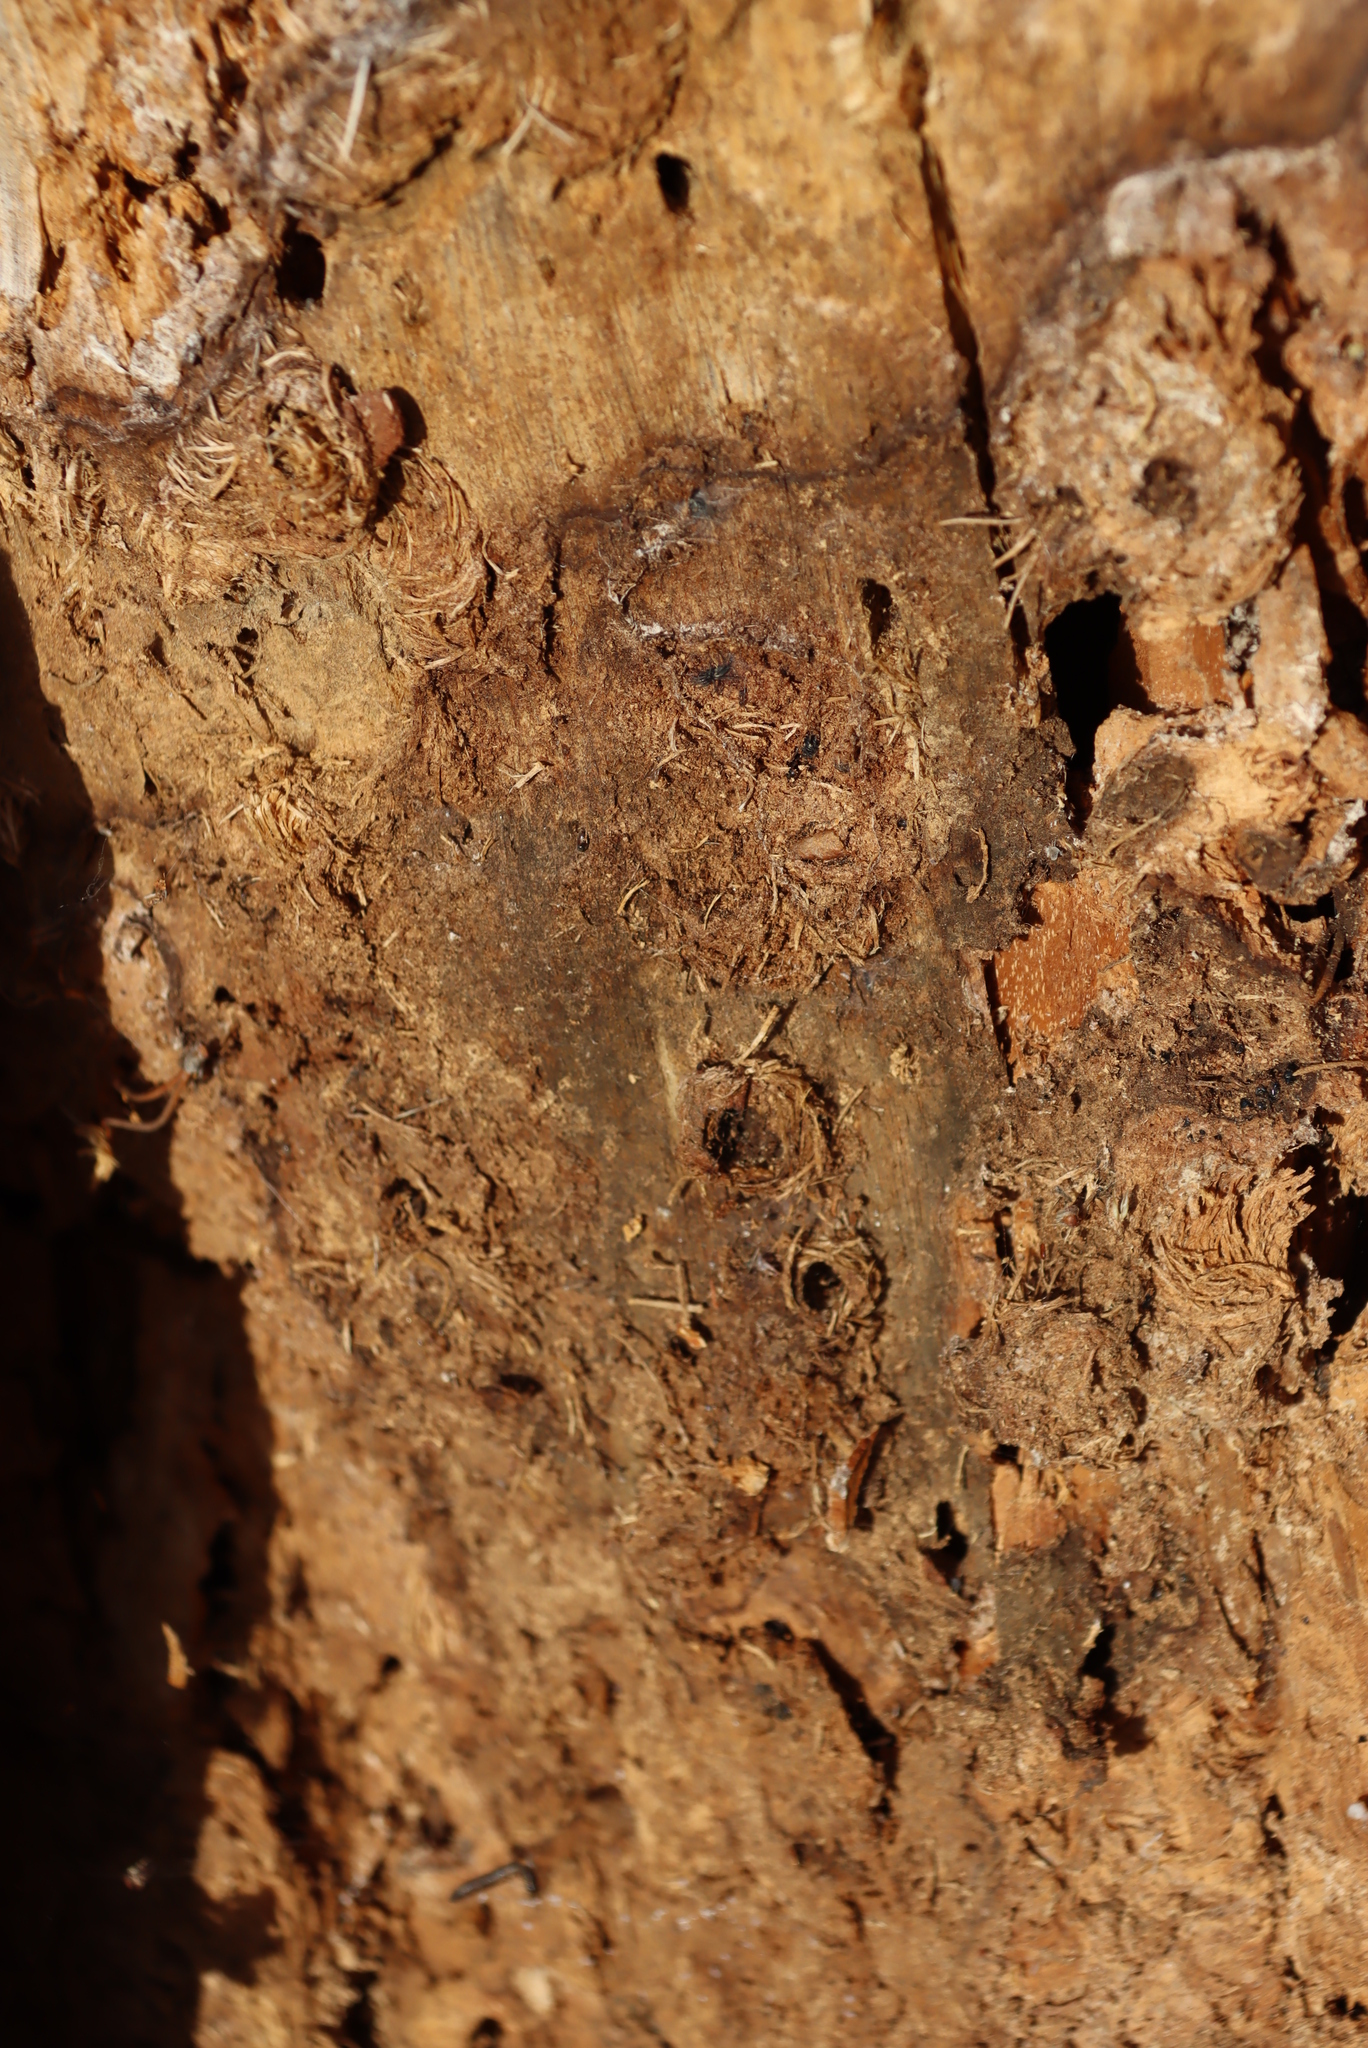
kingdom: Animalia
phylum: Arthropoda
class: Insecta
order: Coleoptera
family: Curculionidae
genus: Pissodes
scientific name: Pissodes
